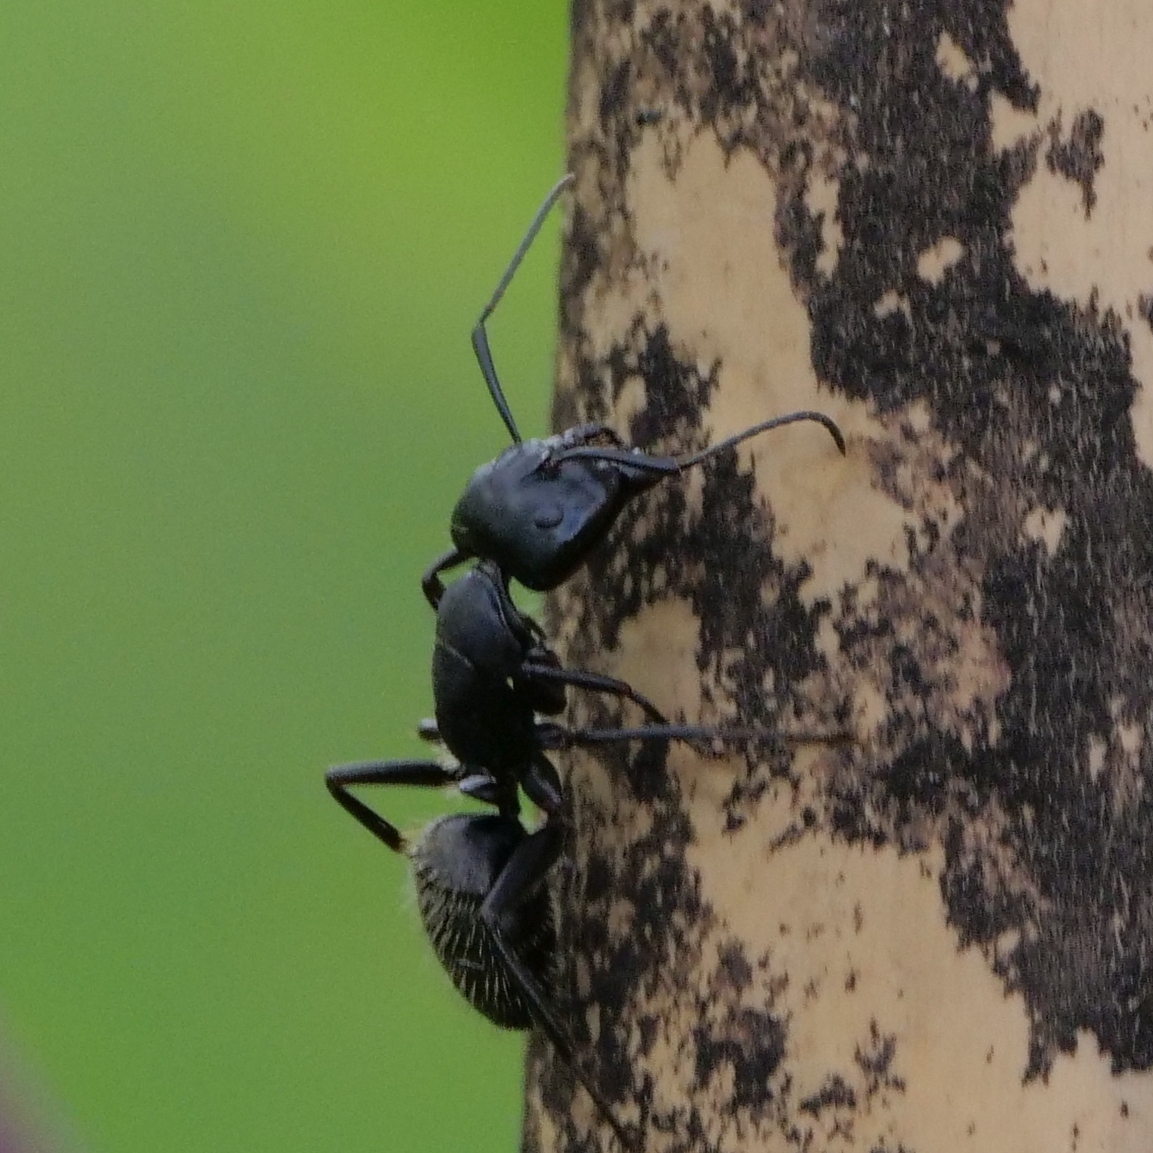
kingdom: Animalia
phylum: Arthropoda
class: Insecta
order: Hymenoptera
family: Formicidae
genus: Camponotus
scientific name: Camponotus vagus
